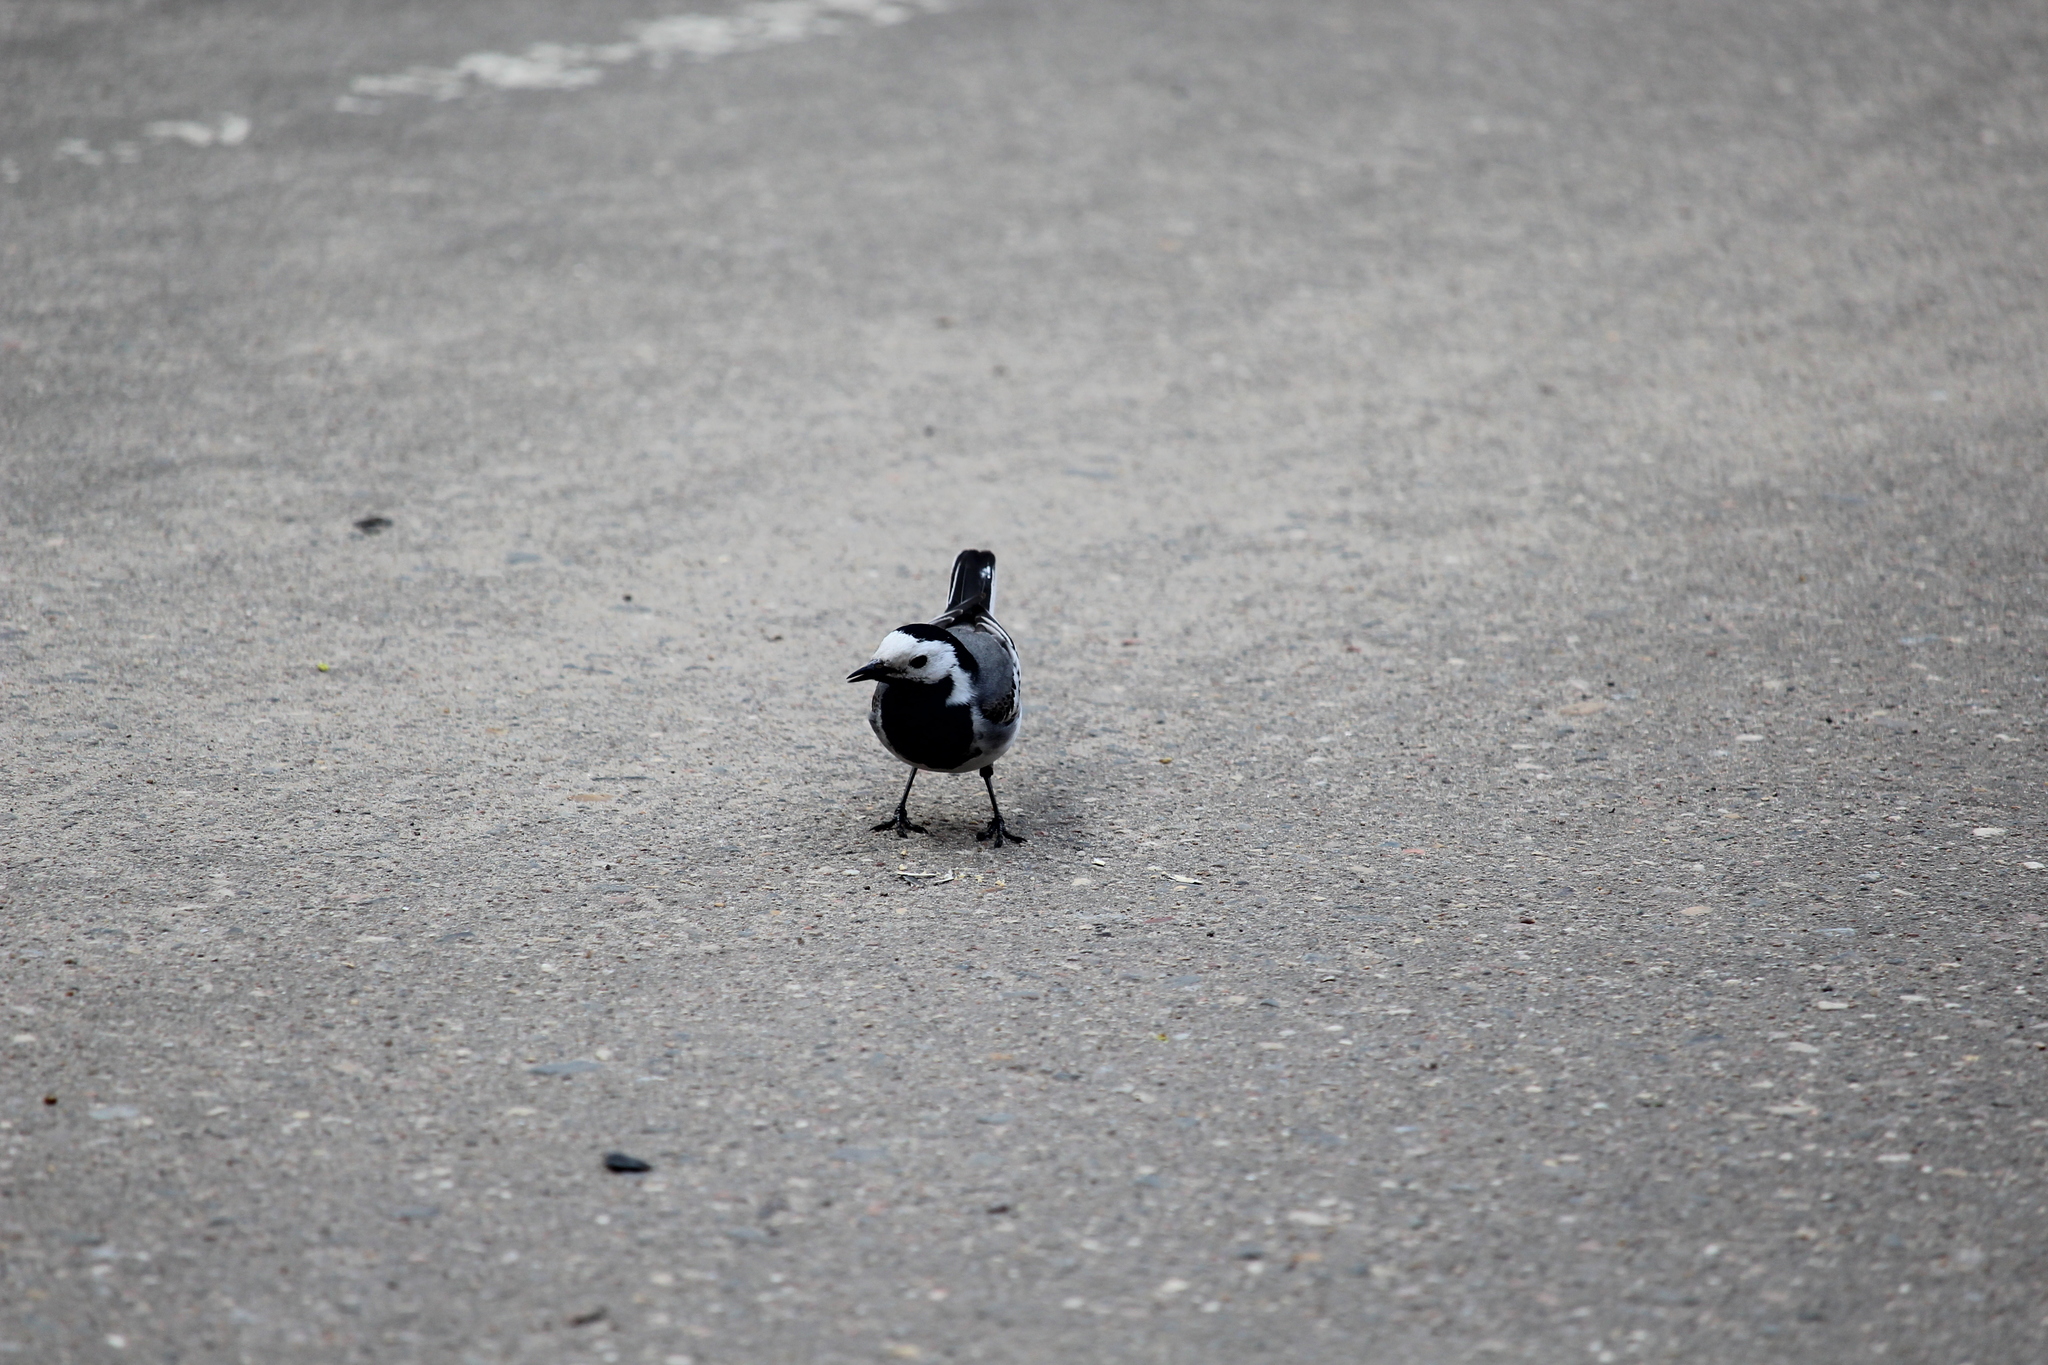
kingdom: Animalia
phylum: Chordata
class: Aves
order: Passeriformes
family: Motacillidae
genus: Motacilla
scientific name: Motacilla alba
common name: White wagtail
